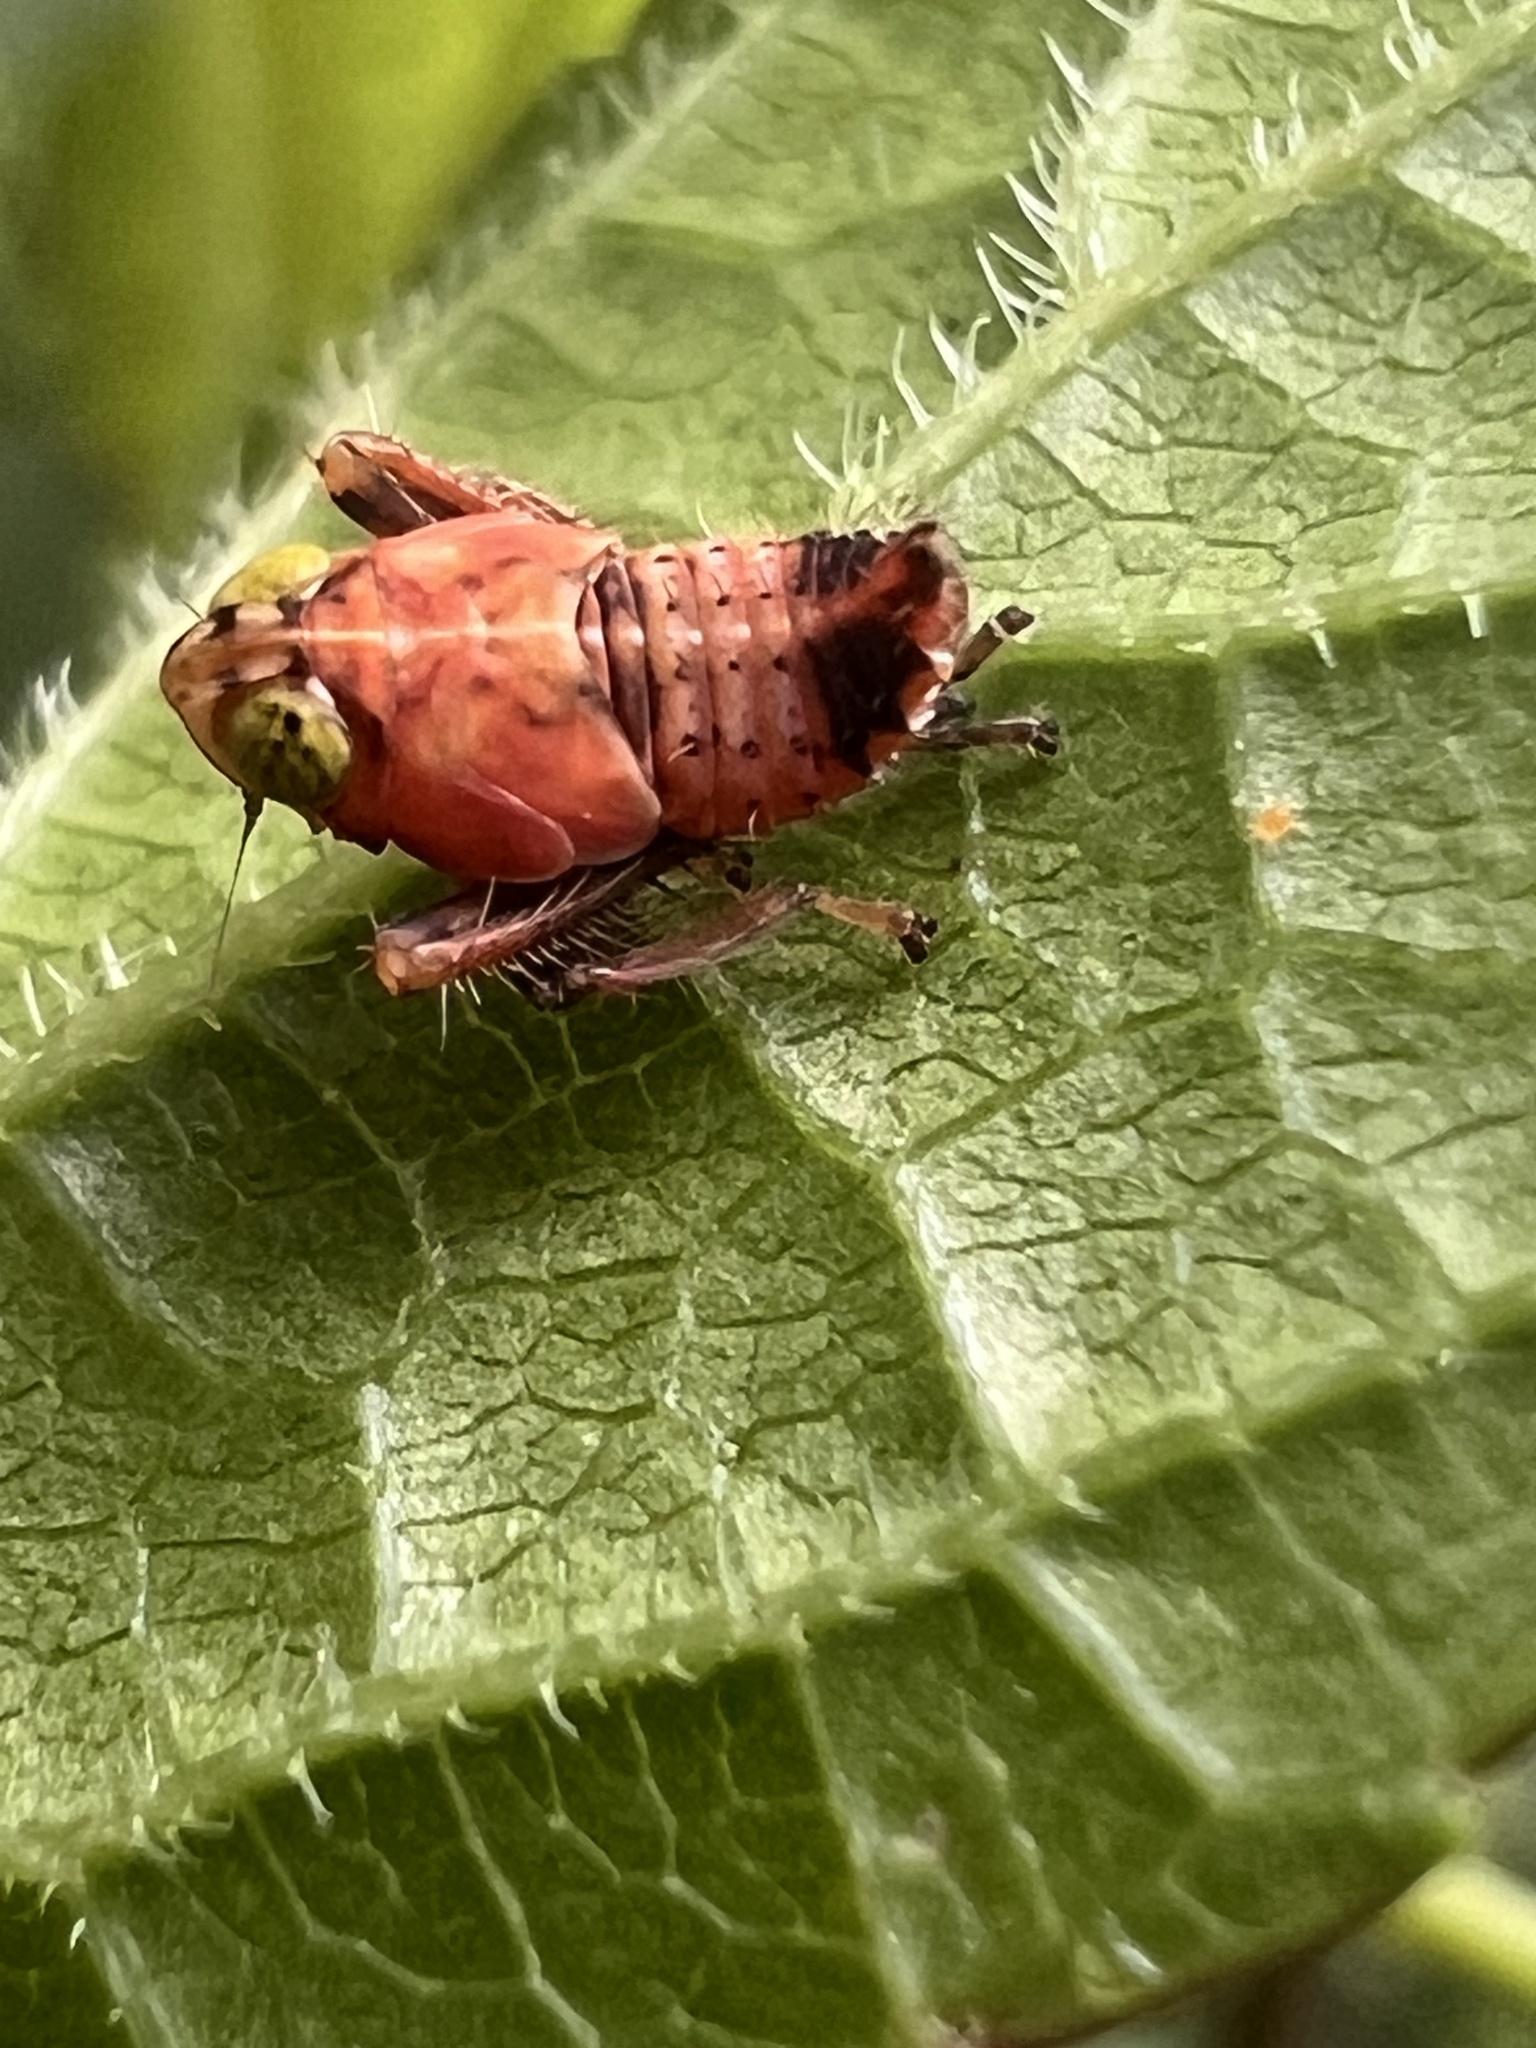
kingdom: Animalia
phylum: Arthropoda
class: Insecta
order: Hemiptera
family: Cicadellidae
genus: Jikradia
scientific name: Jikradia olitoria
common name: Coppery leafhopper
